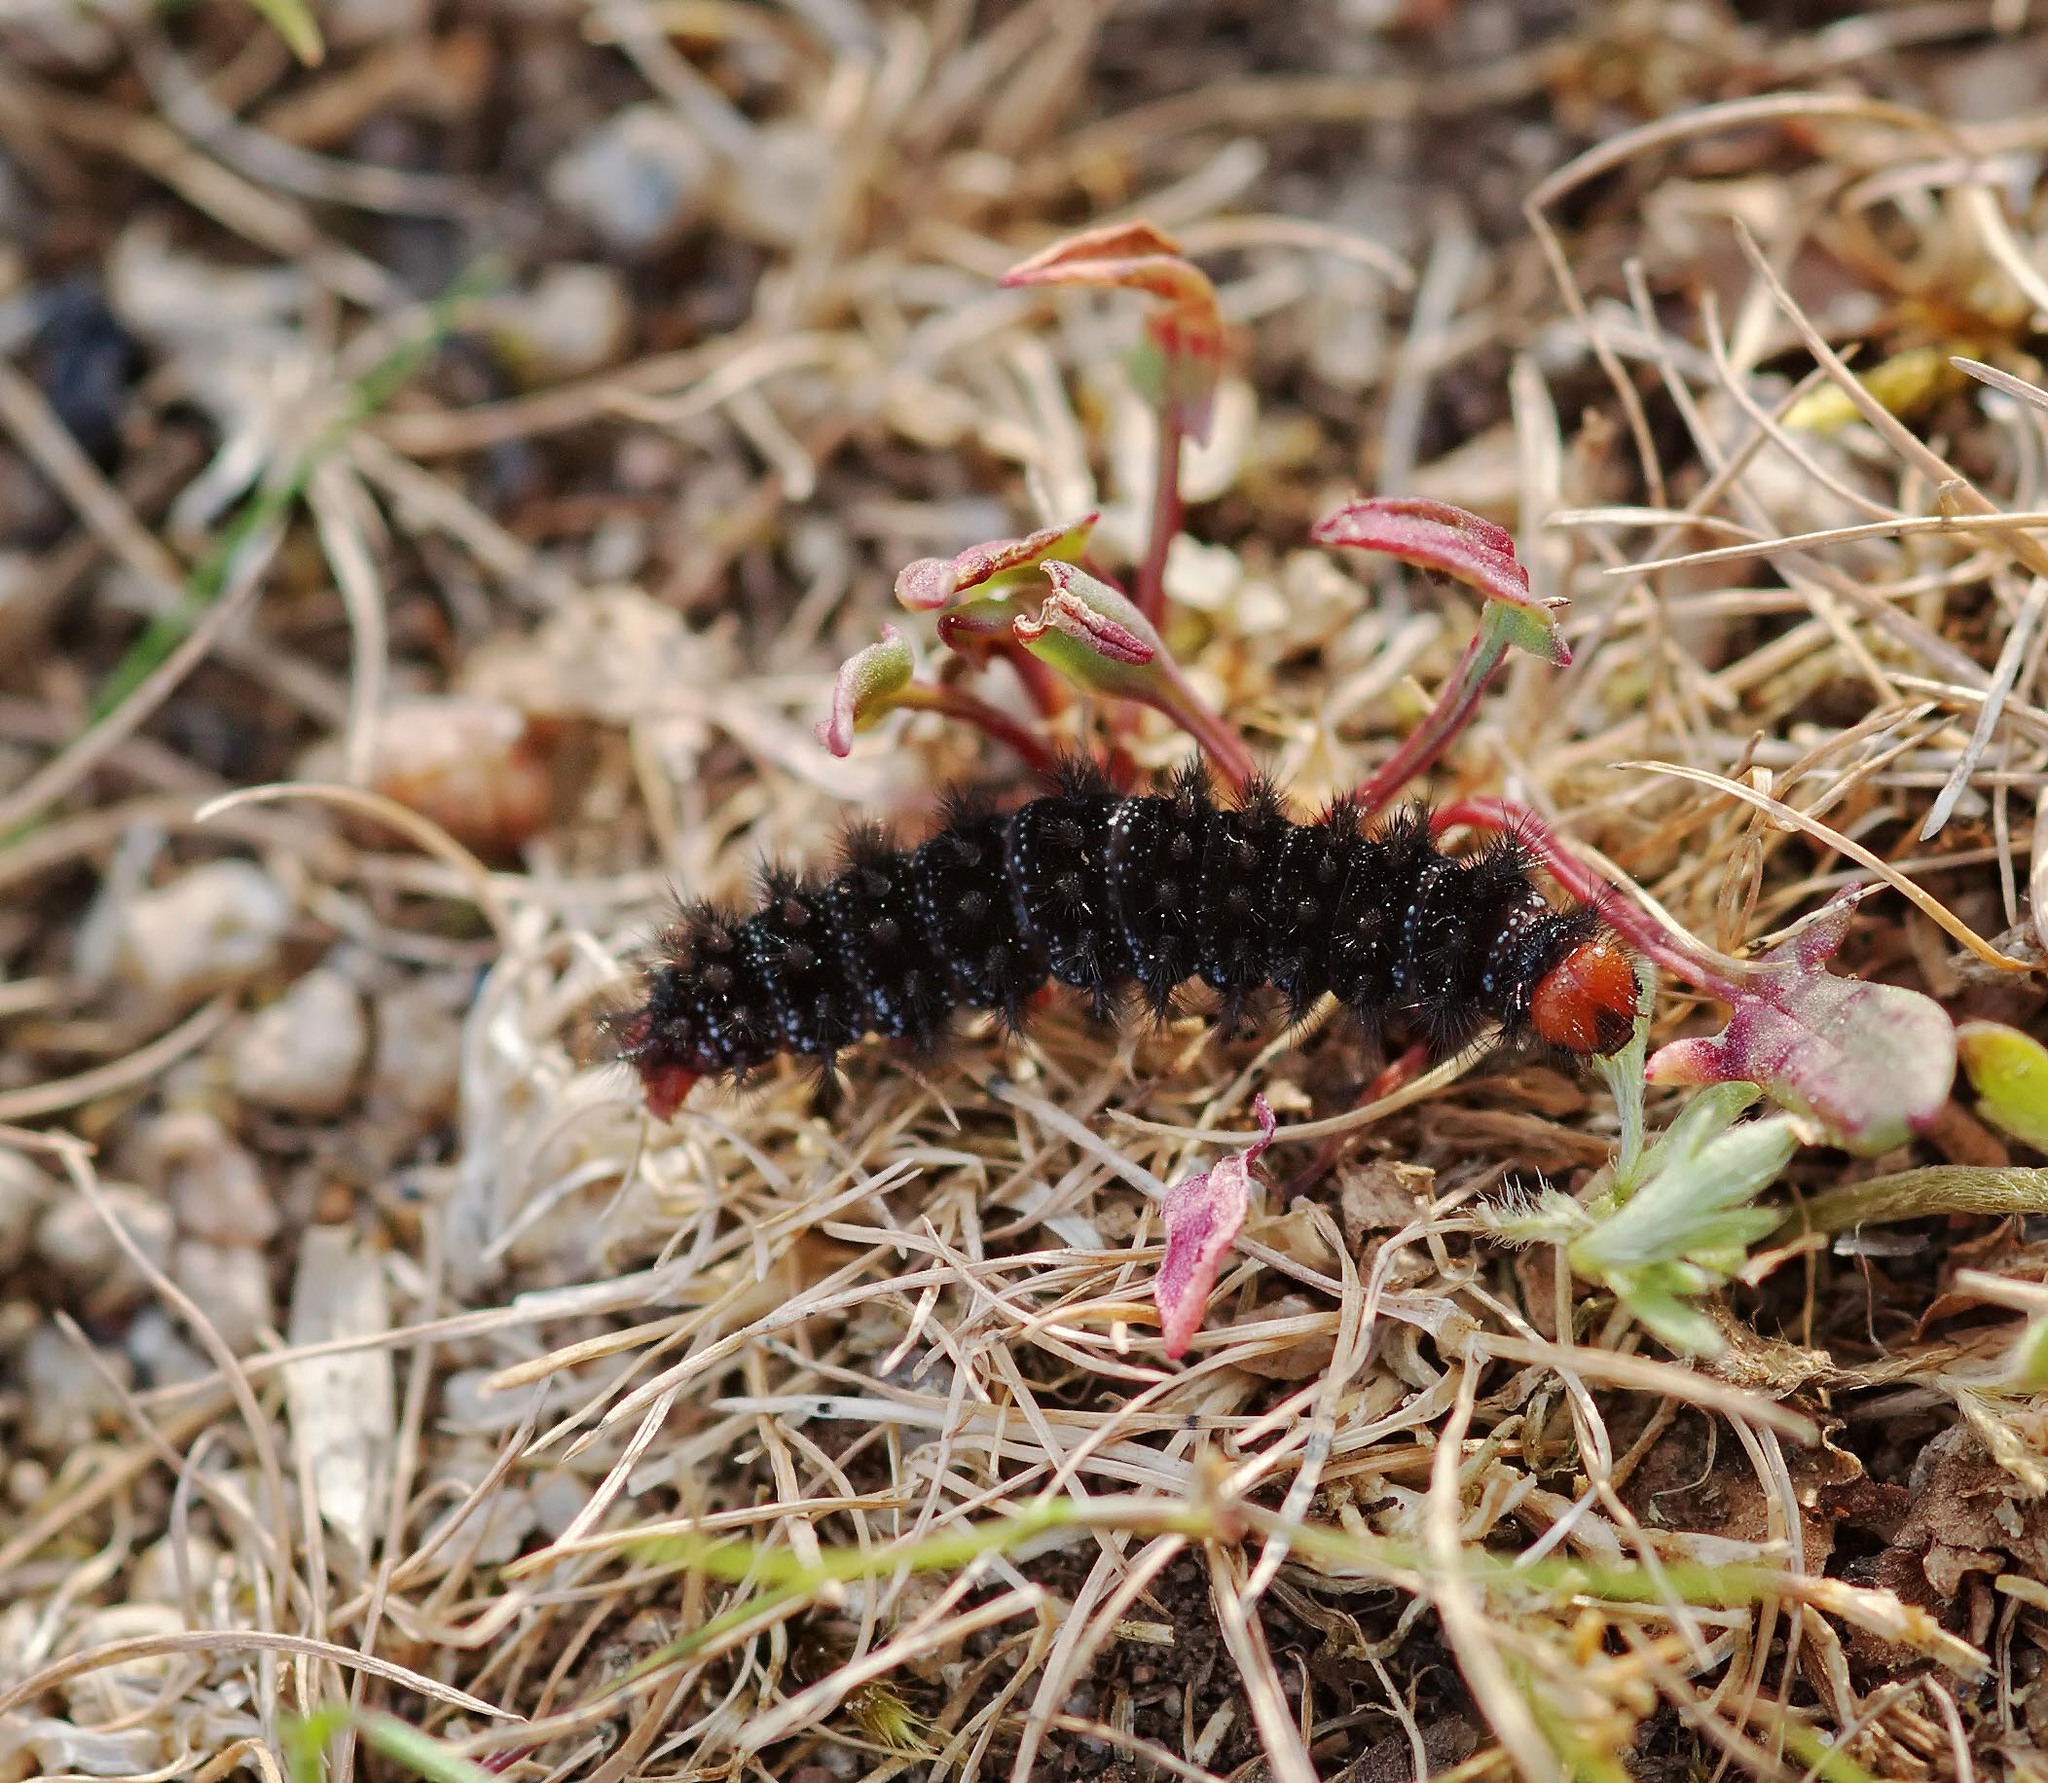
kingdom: Animalia
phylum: Arthropoda
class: Insecta
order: Lepidoptera
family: Nymphalidae
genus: Melitaea
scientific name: Melitaea cinxia
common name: Glanville fritillary
